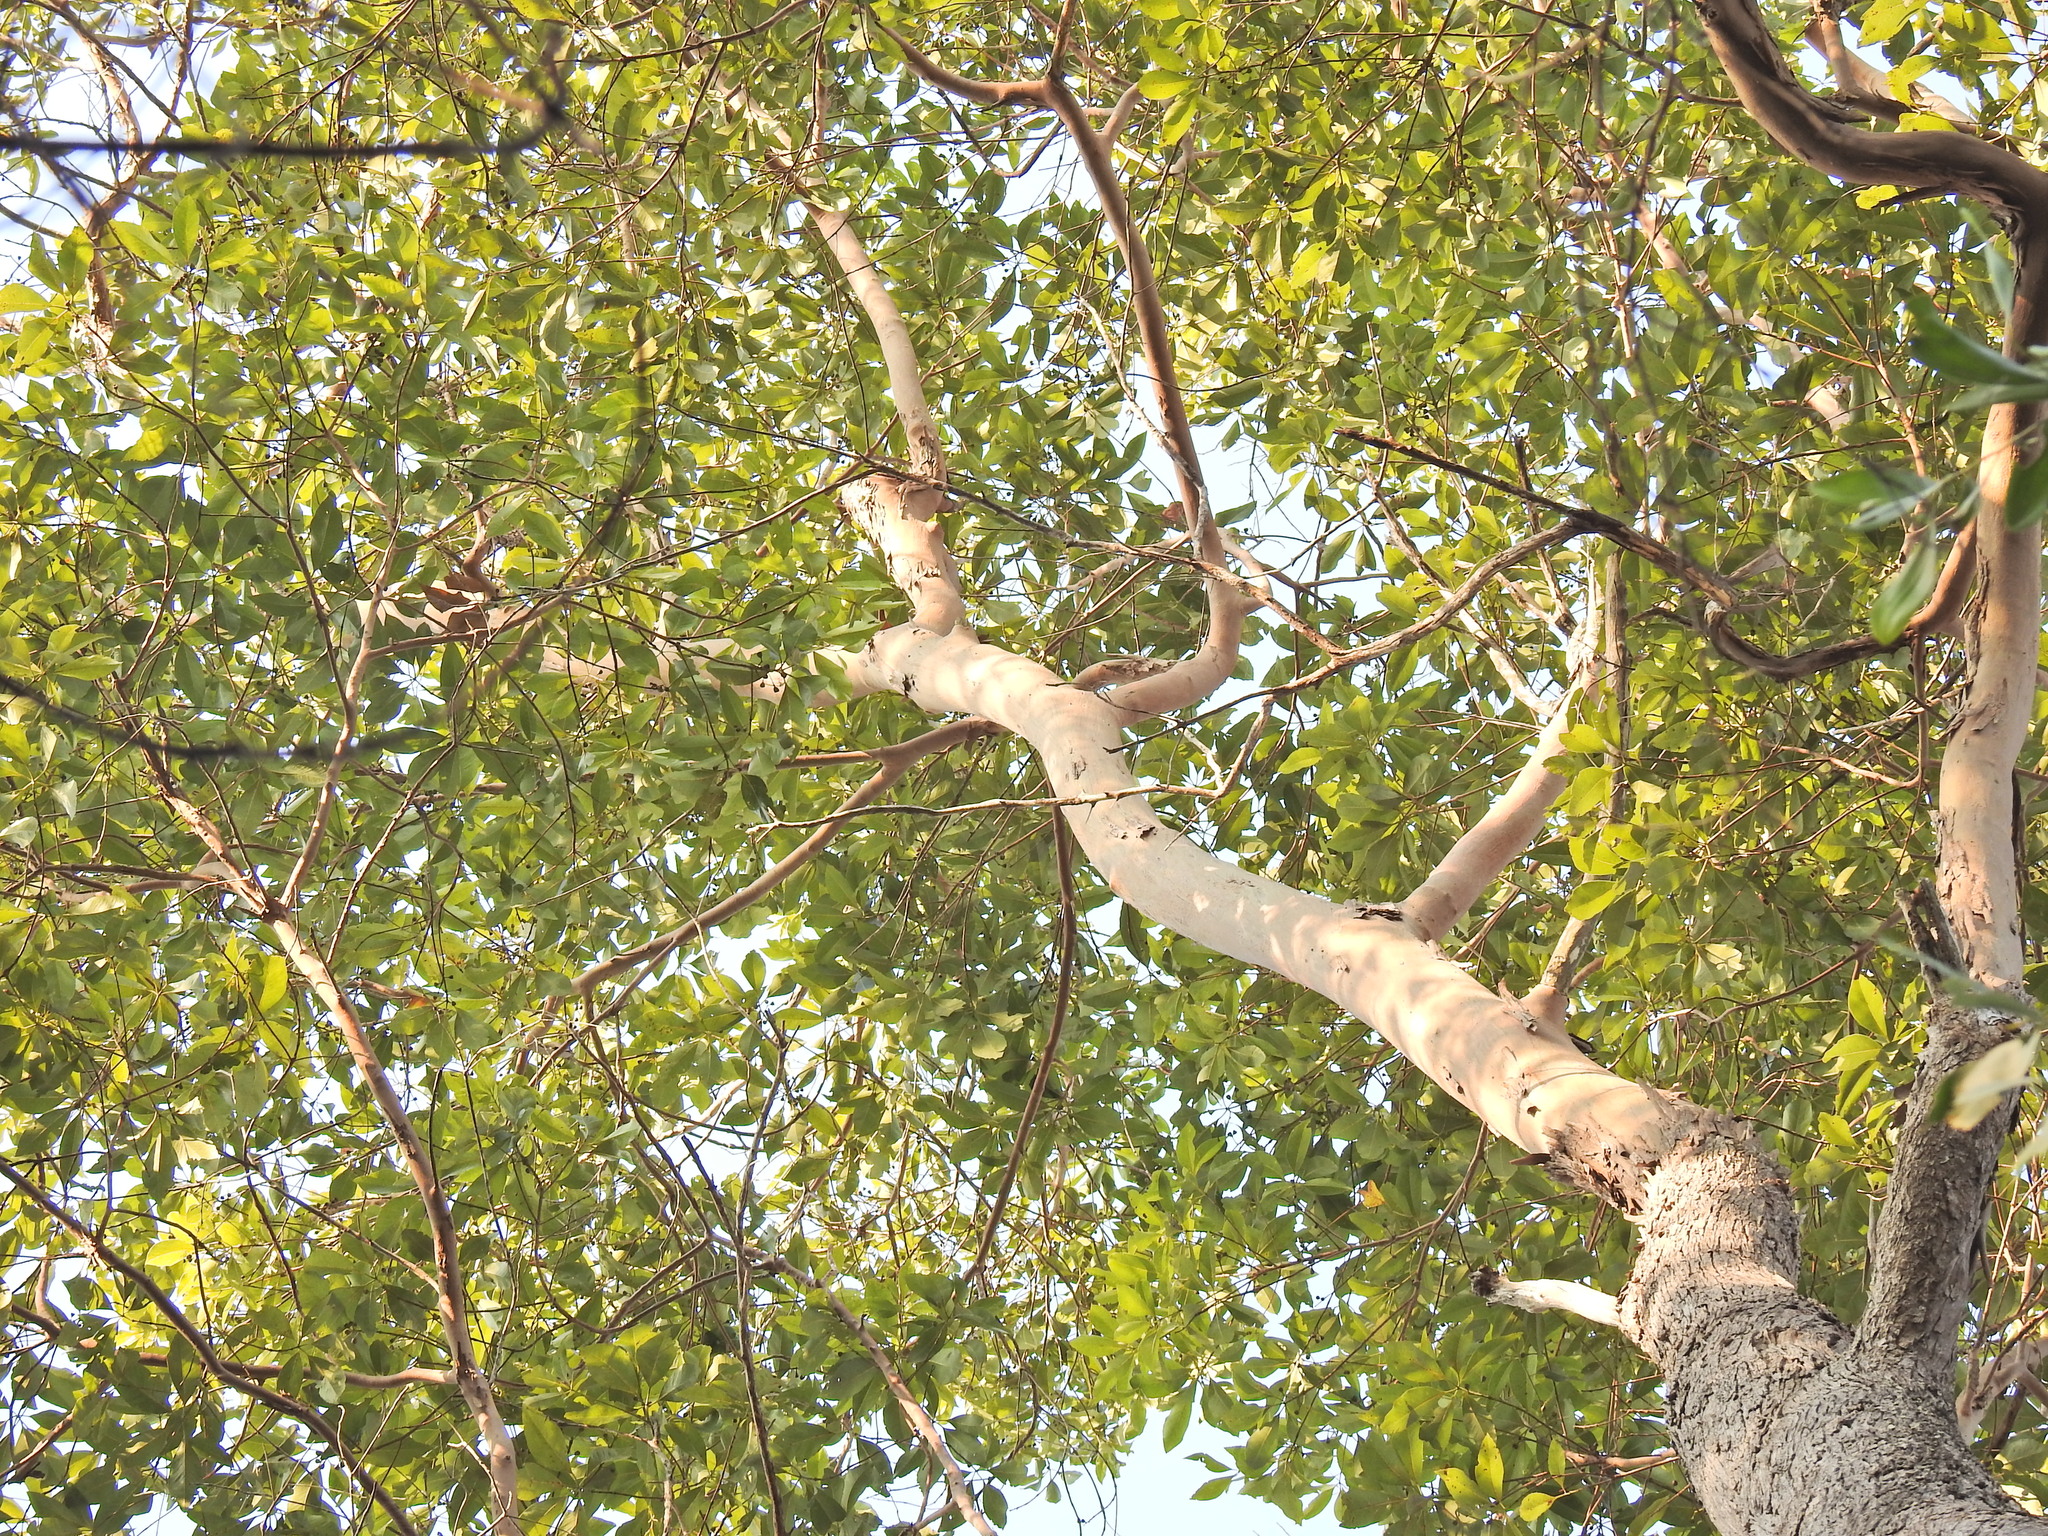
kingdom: Plantae
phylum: Tracheophyta
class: Magnoliopsida
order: Myrtales
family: Myrtaceae
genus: Lophostemon
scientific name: Lophostemon confertus
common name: Brisbane box
